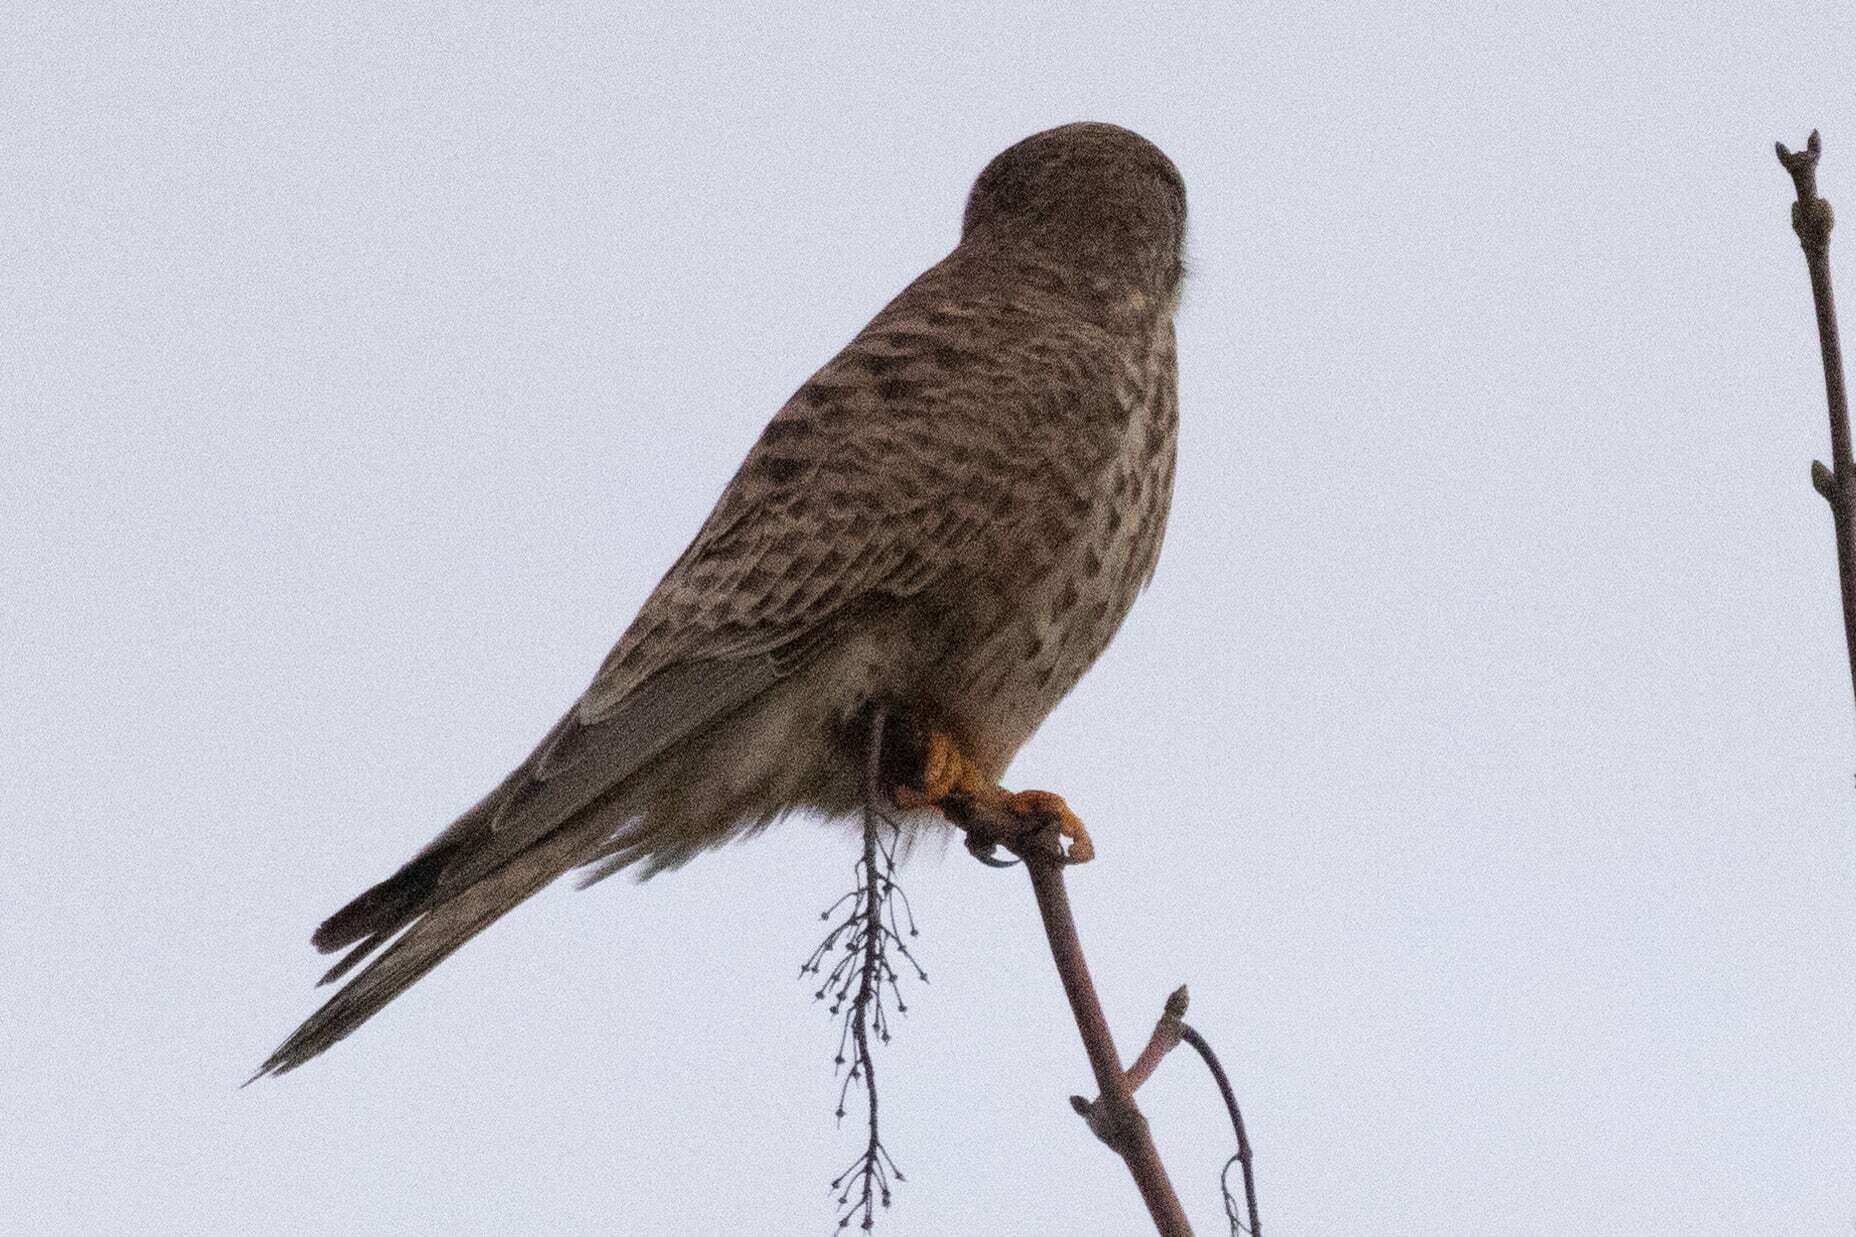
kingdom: Animalia
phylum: Chordata
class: Aves
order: Falconiformes
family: Falconidae
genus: Falco
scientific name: Falco tinnunculus
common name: Common kestrel
